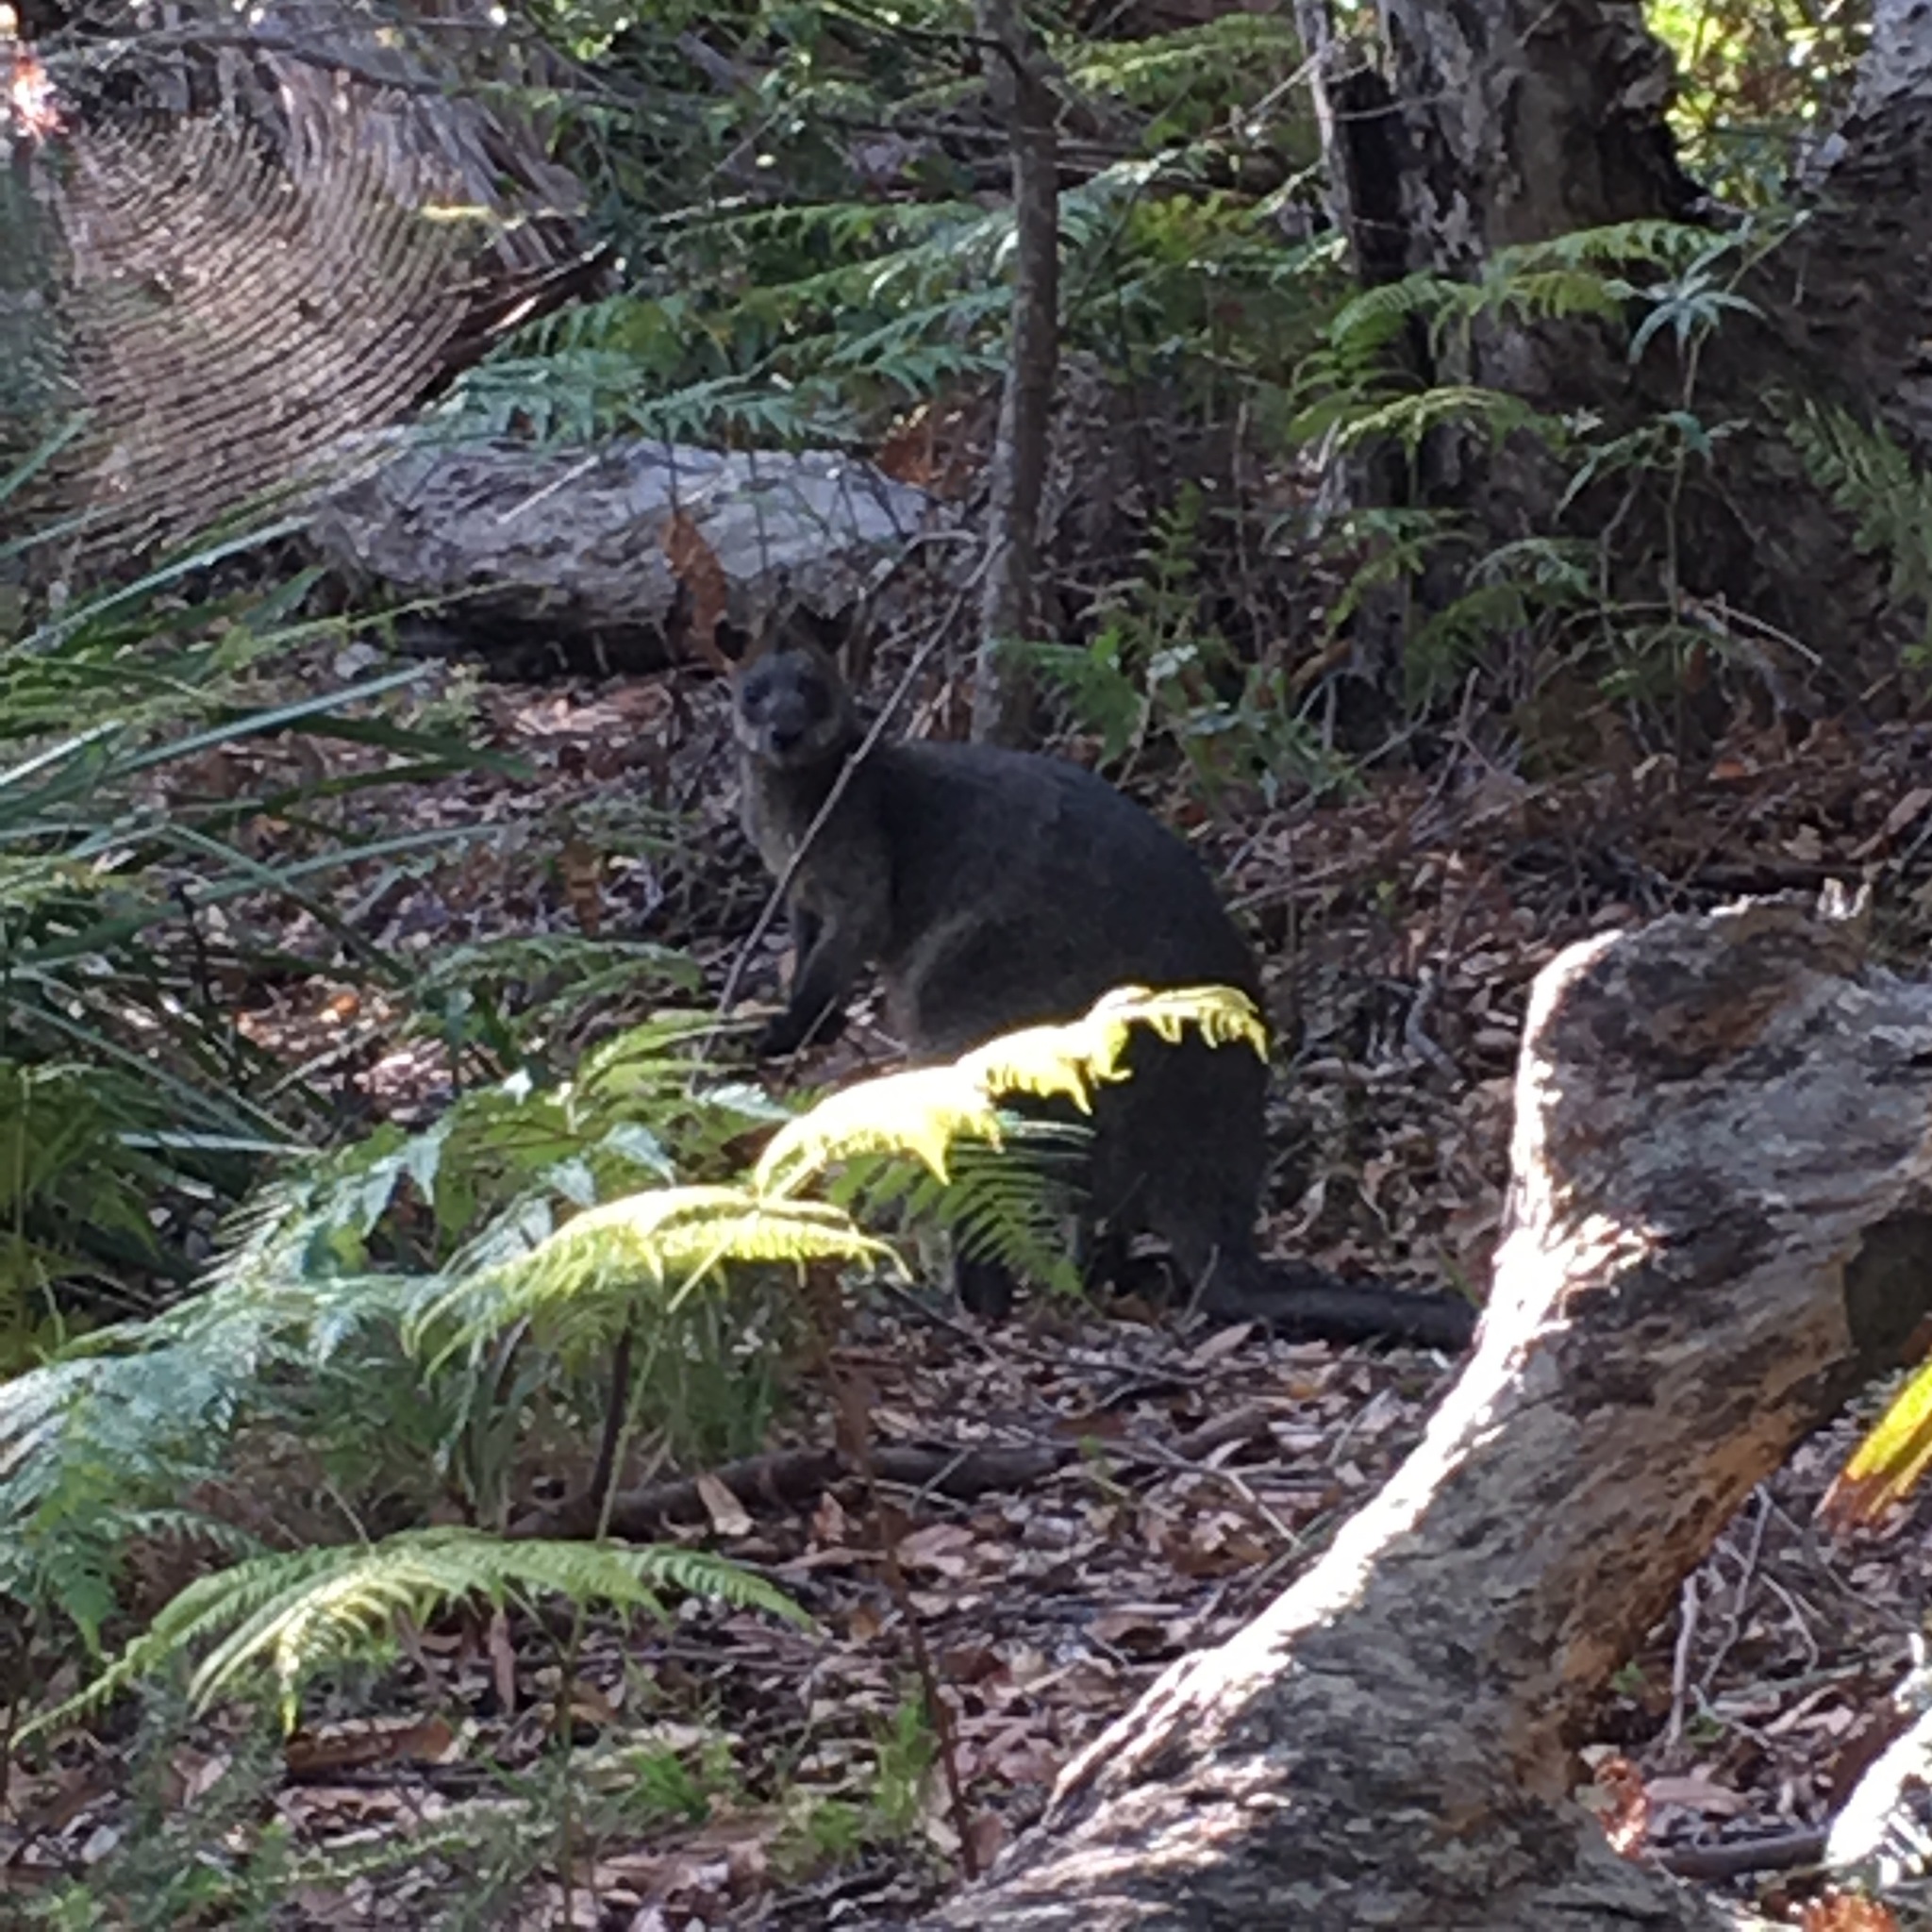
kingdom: Animalia
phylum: Chordata
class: Mammalia
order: Diprotodontia
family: Macropodidae
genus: Wallabia
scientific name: Wallabia bicolor
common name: Swamp wallaby
